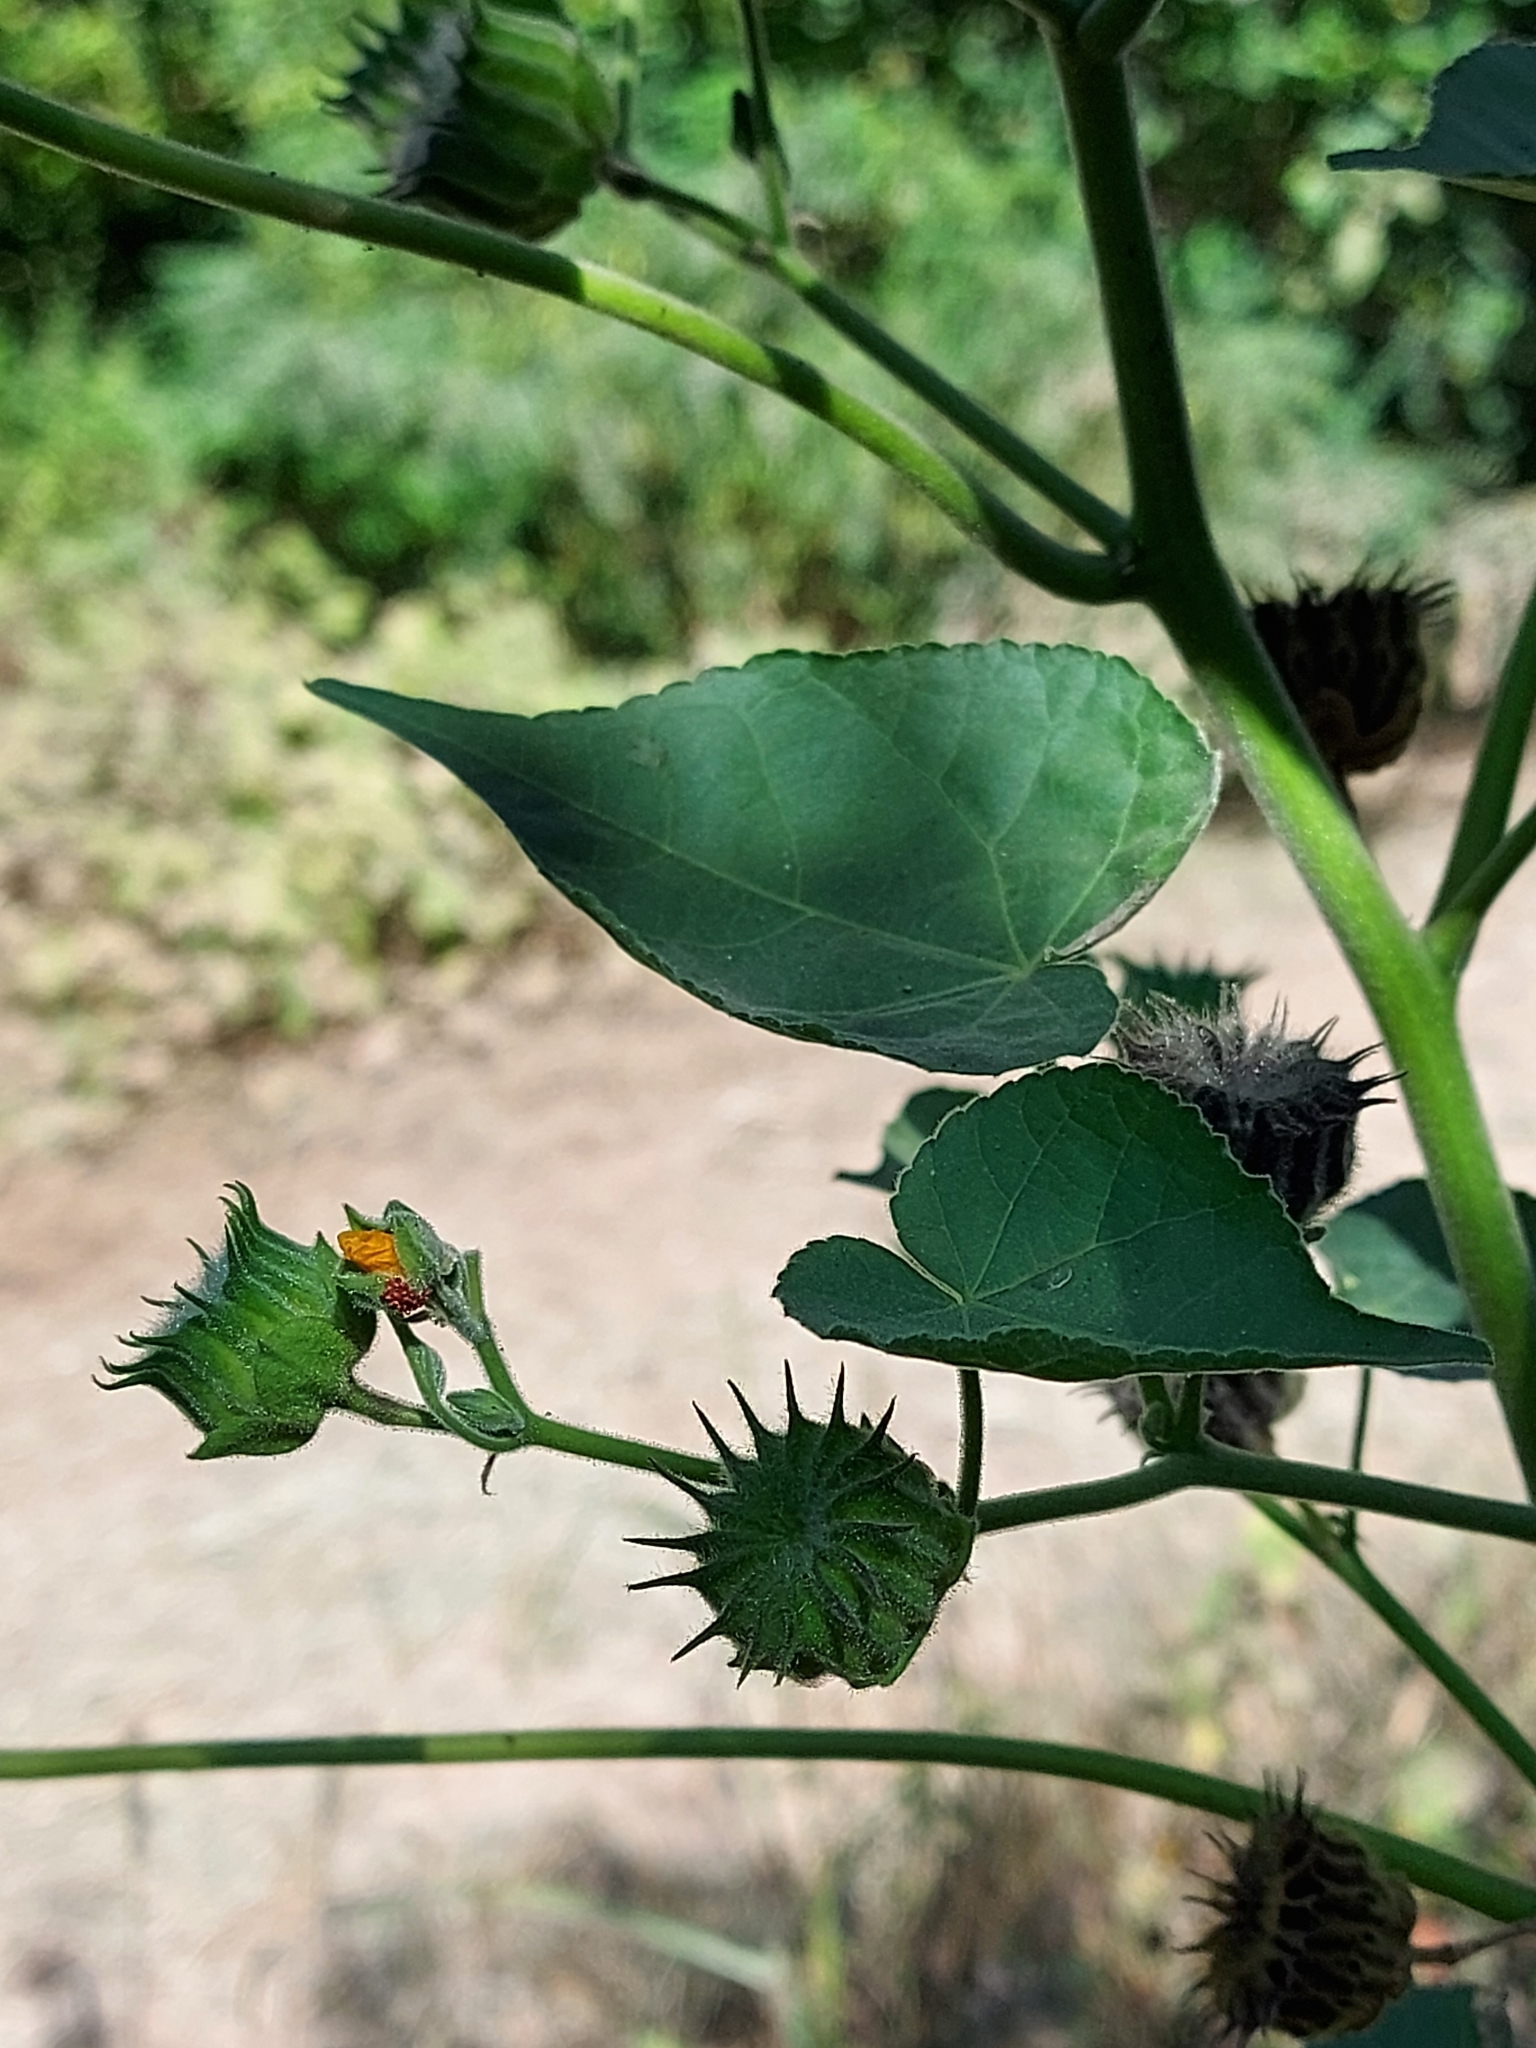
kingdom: Plantae
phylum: Tracheophyta
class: Magnoliopsida
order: Malvales
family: Malvaceae
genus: Abutilon
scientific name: Abutilon theophrasti
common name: Velvetleaf
